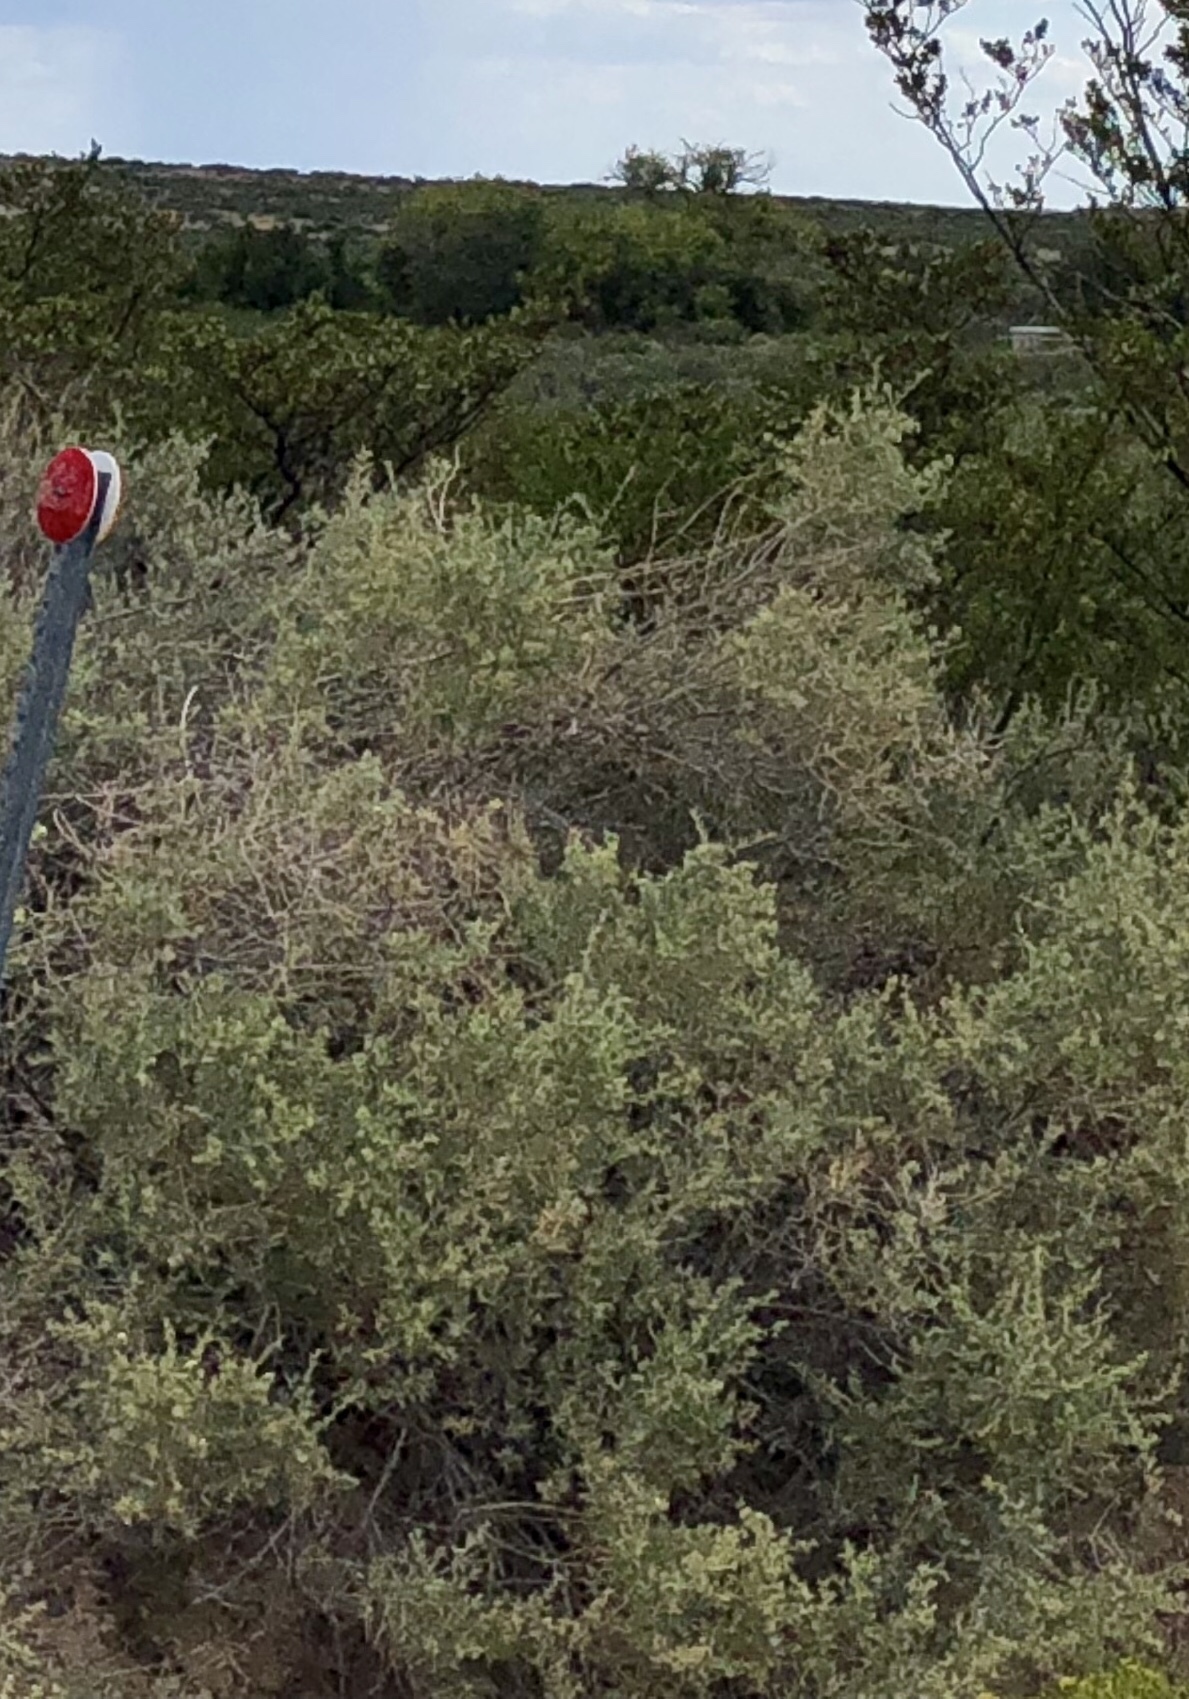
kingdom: Plantae
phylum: Tracheophyta
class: Magnoliopsida
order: Caryophyllales
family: Amaranthaceae
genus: Atriplex
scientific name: Atriplex canescens
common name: Four-wing saltbush
